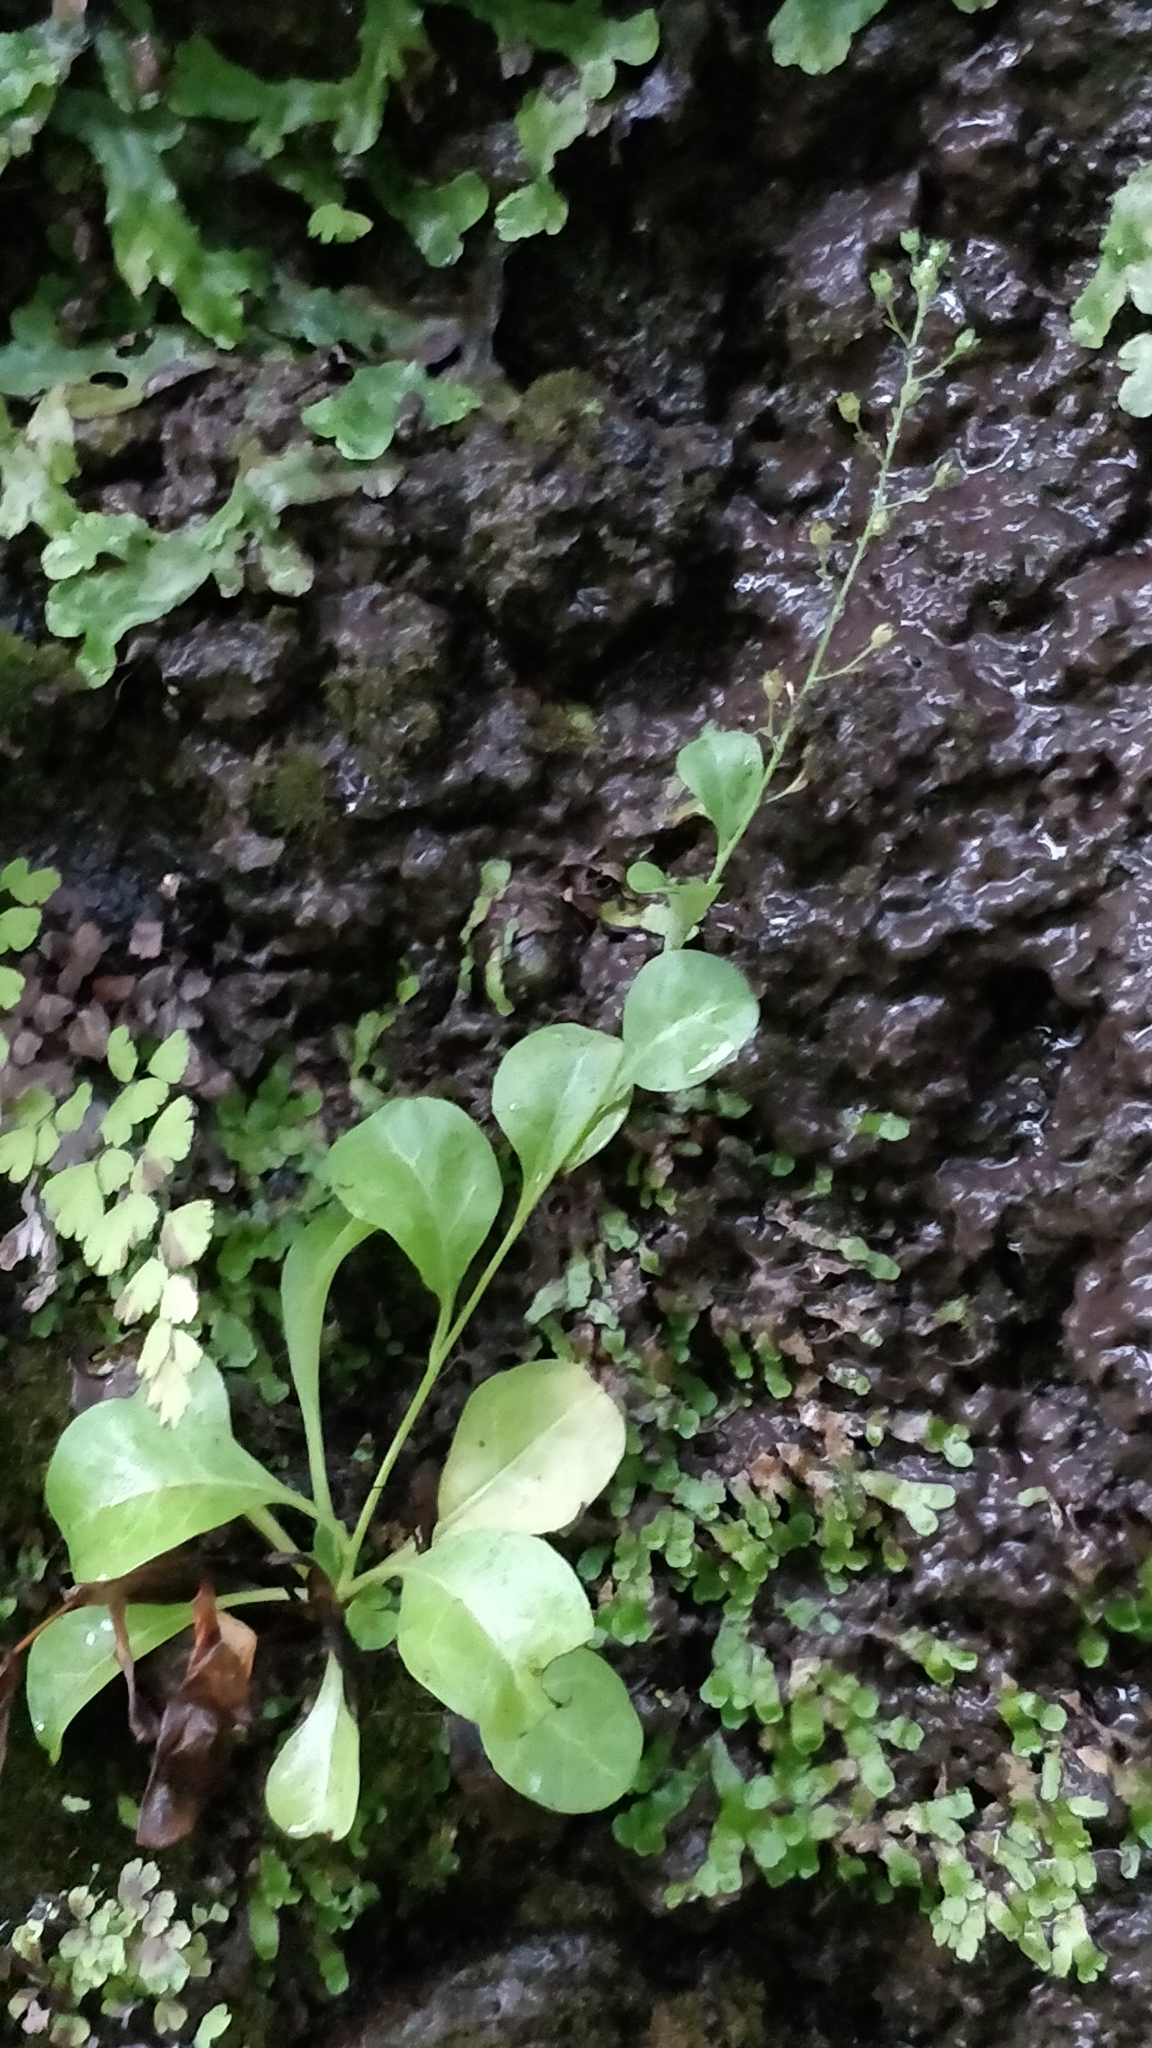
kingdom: Plantae
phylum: Tracheophyta
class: Magnoliopsida
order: Ericales
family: Primulaceae
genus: Samolus
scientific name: Samolus valerandi
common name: Brookweed
